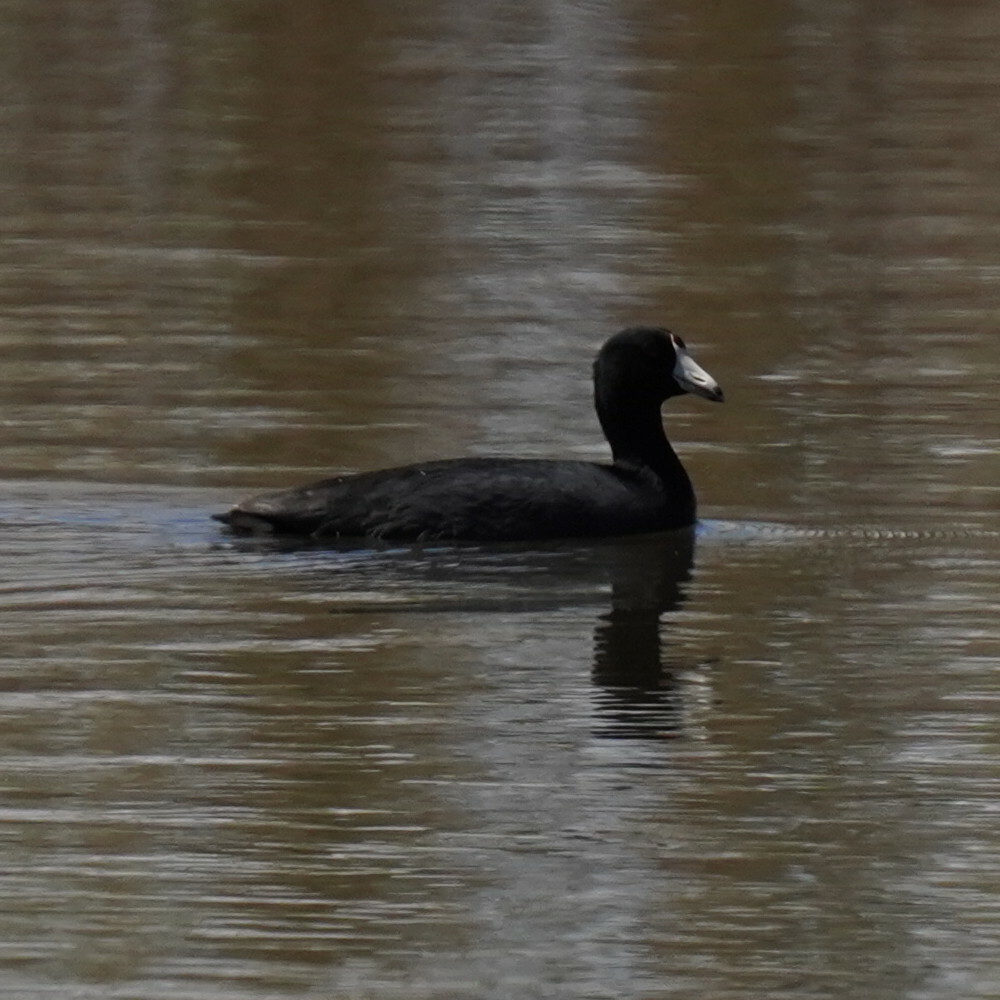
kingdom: Animalia
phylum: Chordata
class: Aves
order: Gruiformes
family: Rallidae
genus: Fulica
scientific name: Fulica americana
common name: American coot
